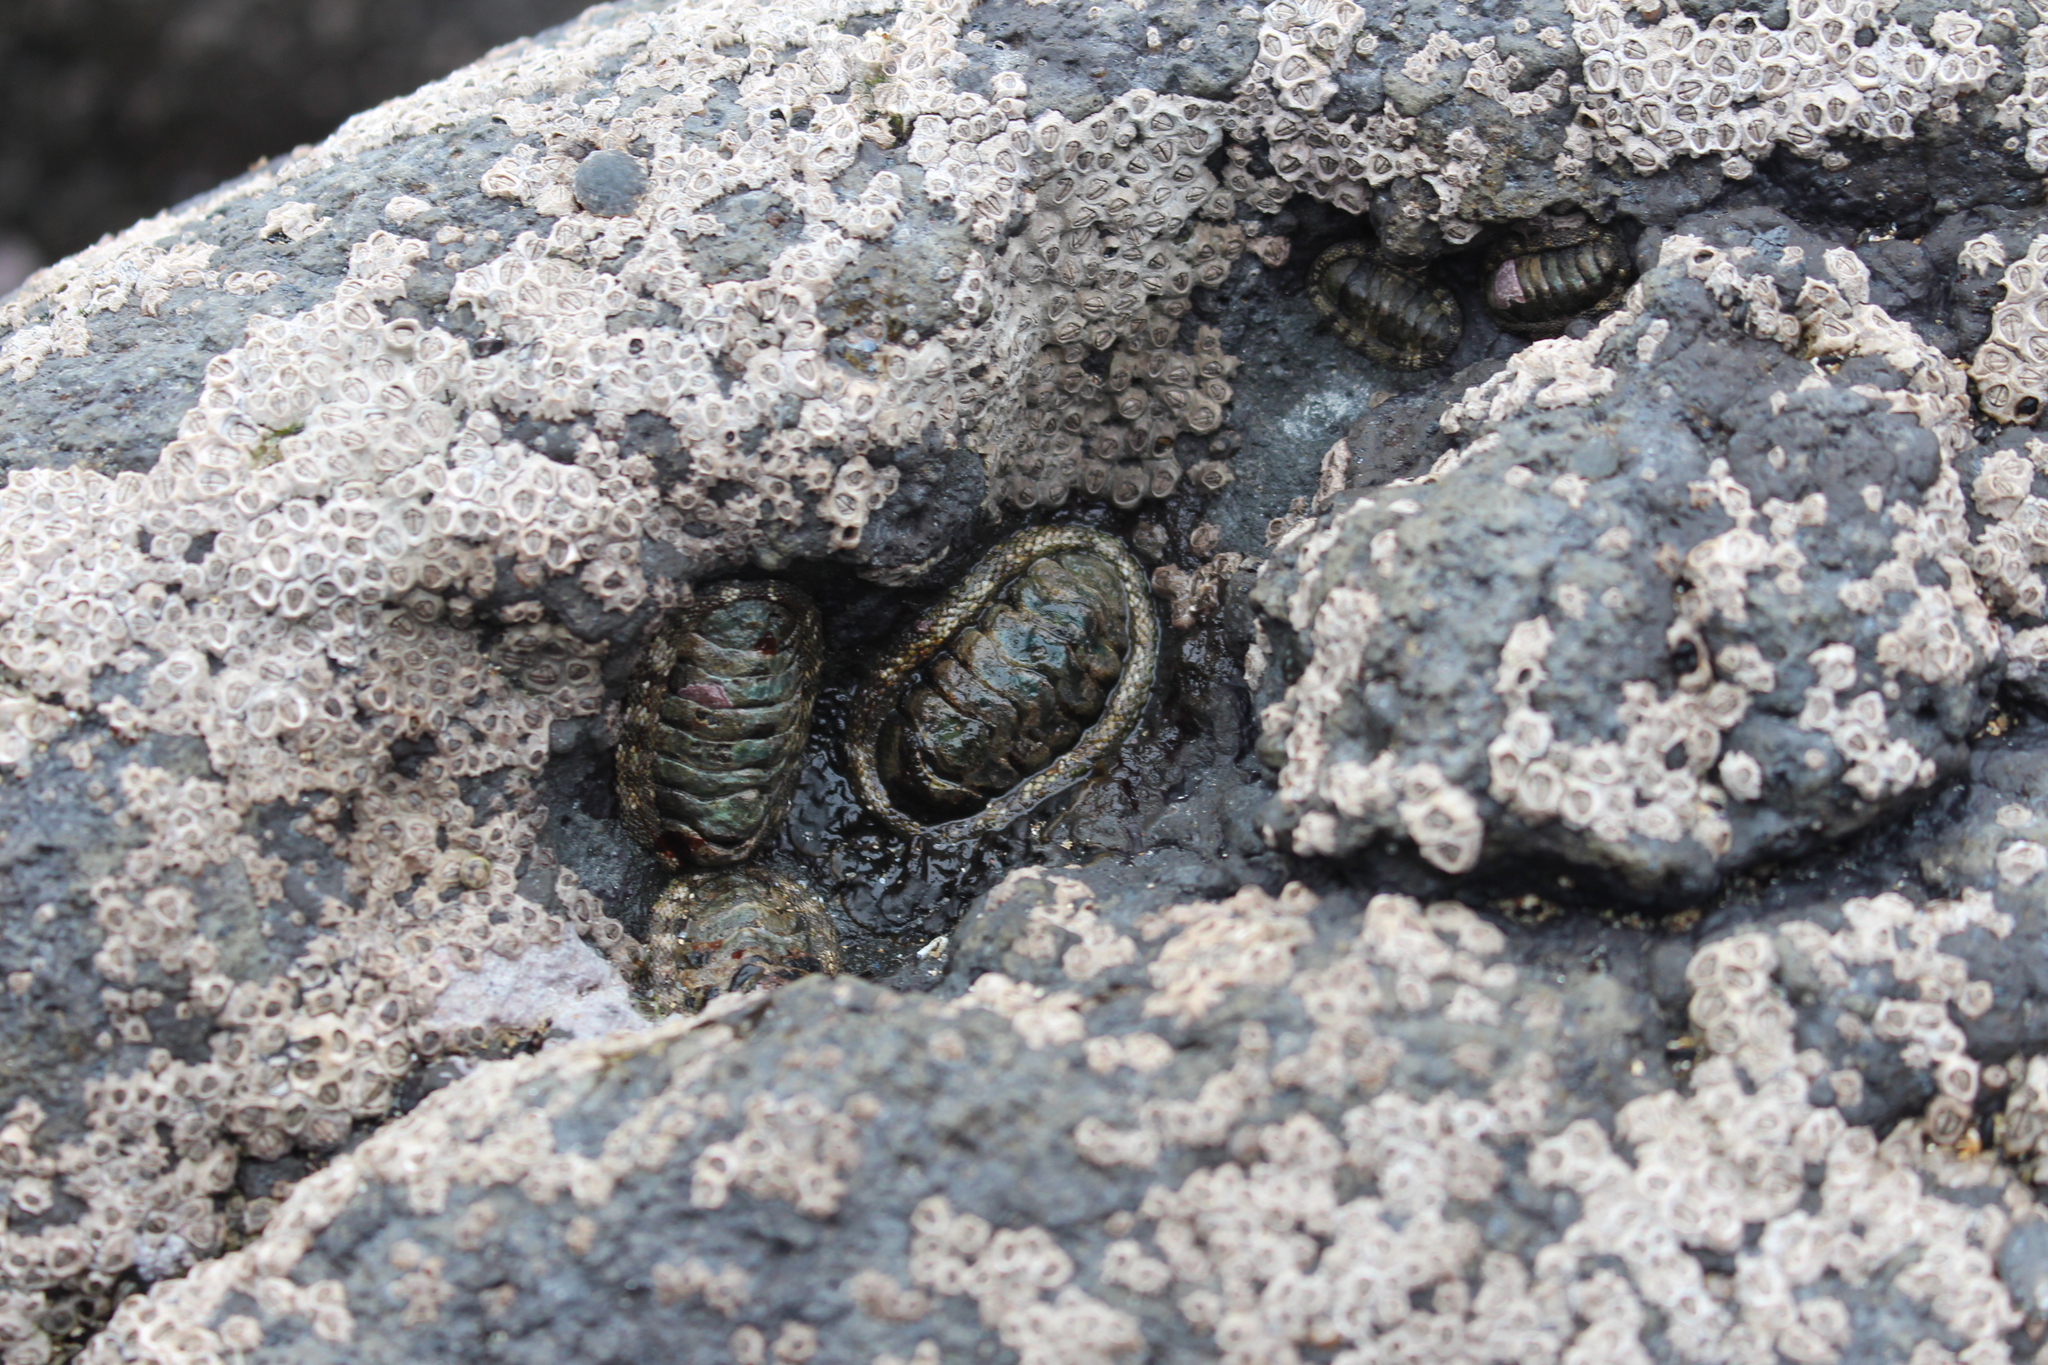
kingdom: Animalia
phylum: Mollusca
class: Polyplacophora
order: Chitonida
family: Chitonidae
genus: Sypharochiton
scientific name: Sypharochiton pelliserpentis
